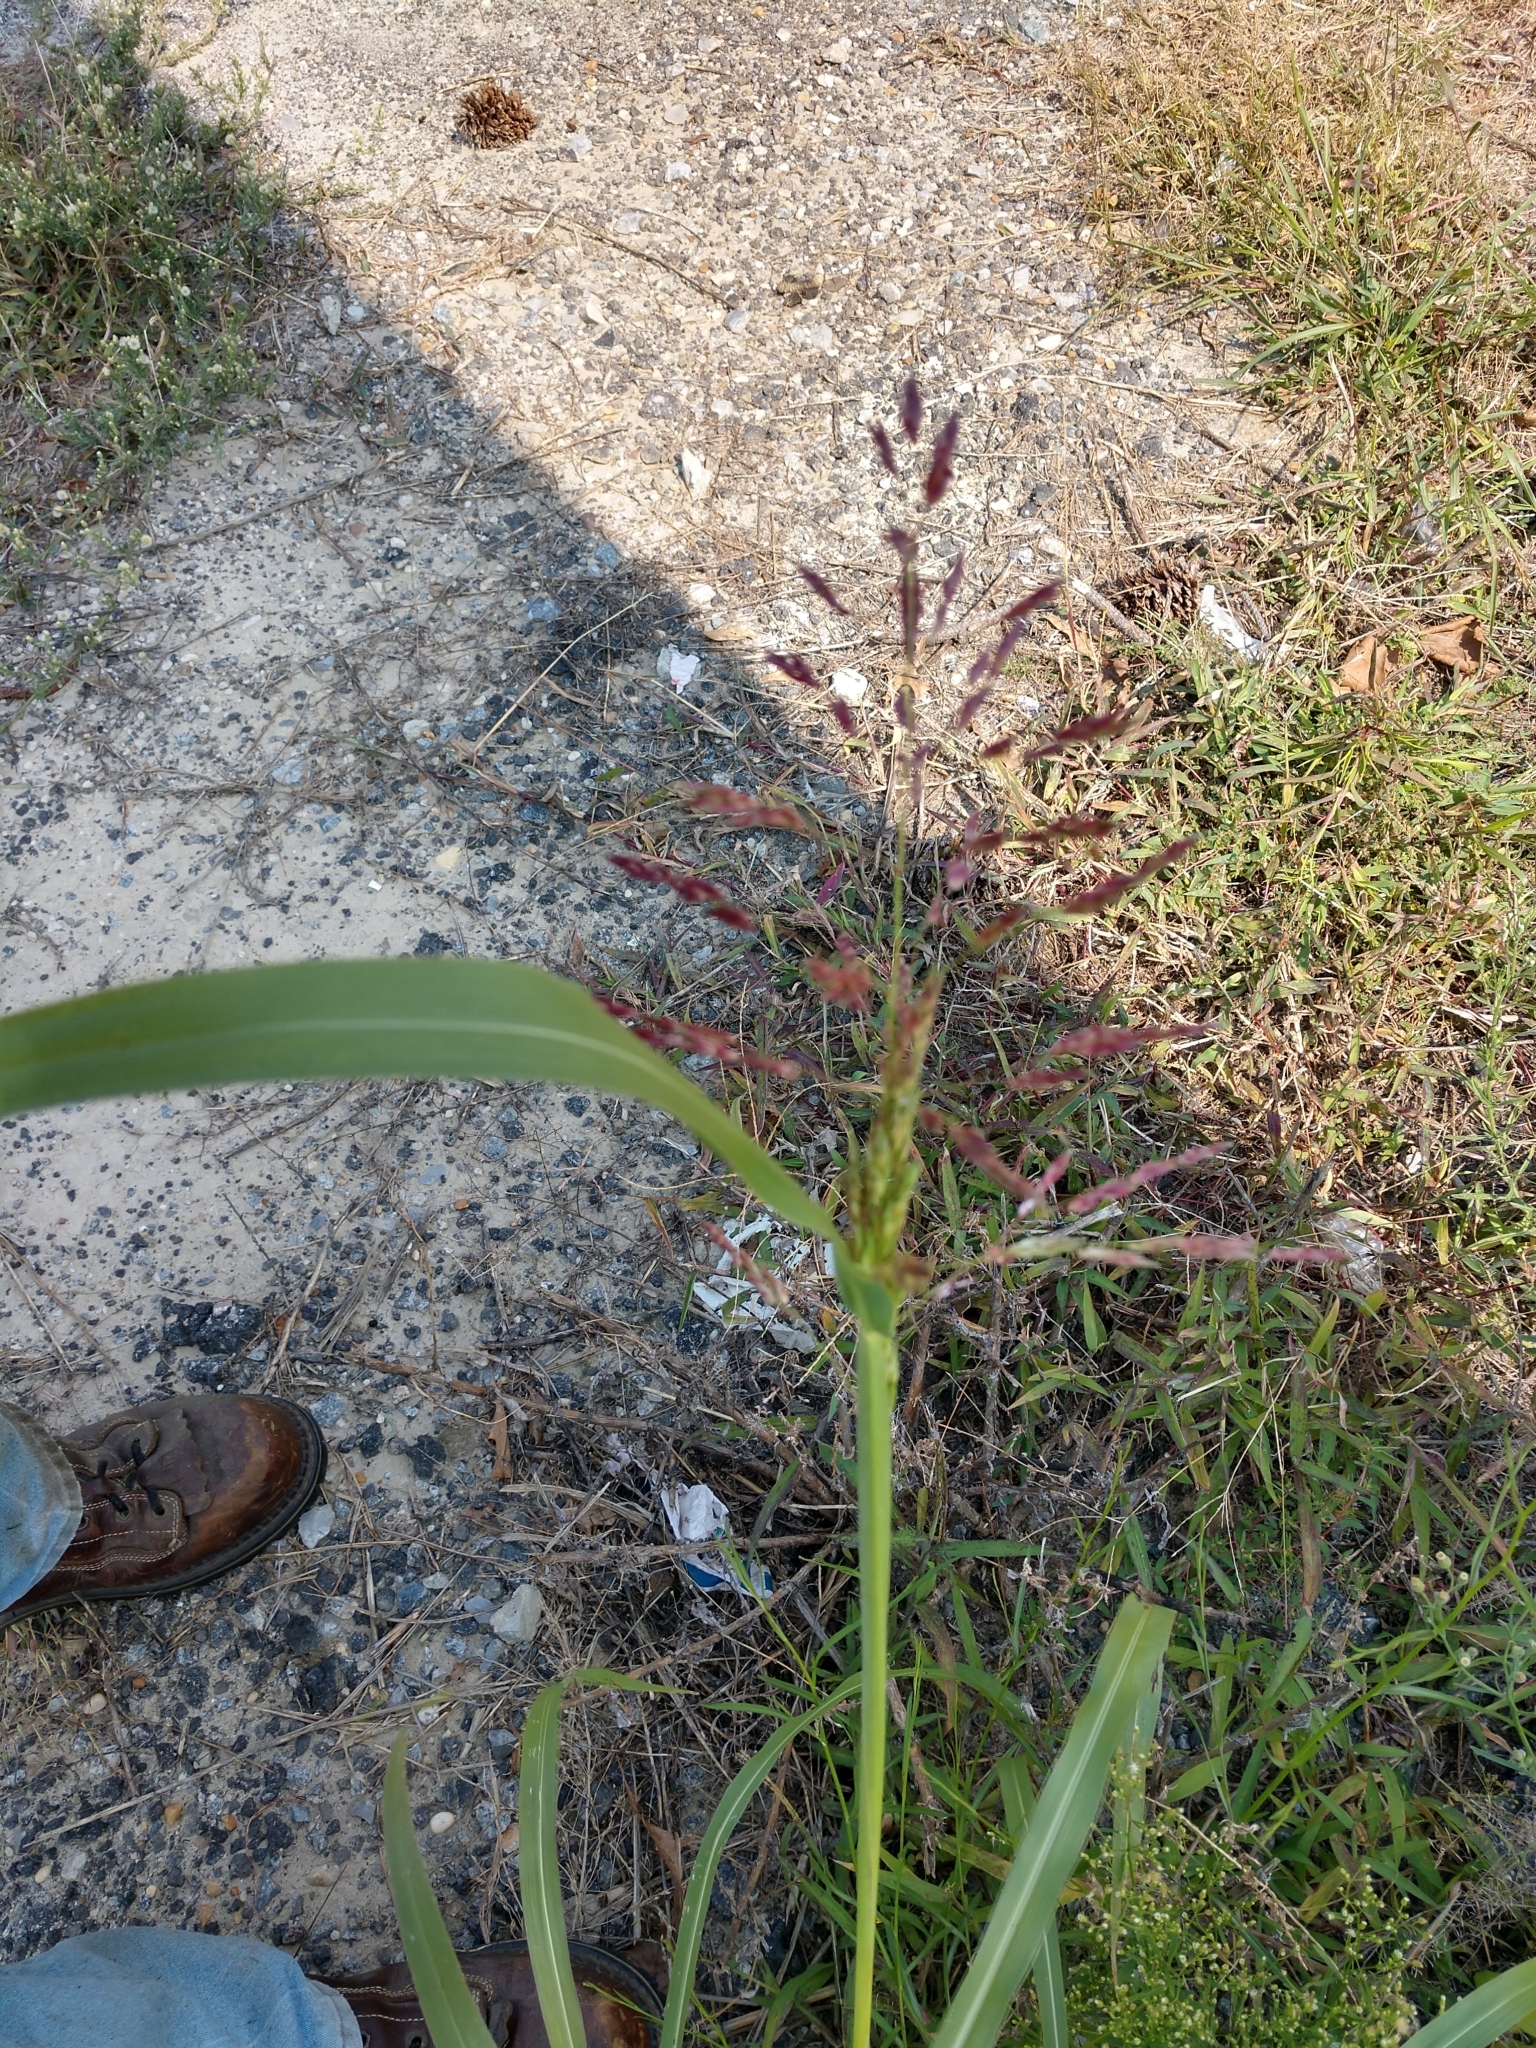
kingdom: Plantae
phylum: Tracheophyta
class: Liliopsida
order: Poales
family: Poaceae
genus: Sorghum
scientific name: Sorghum halepense
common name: Johnson-grass
